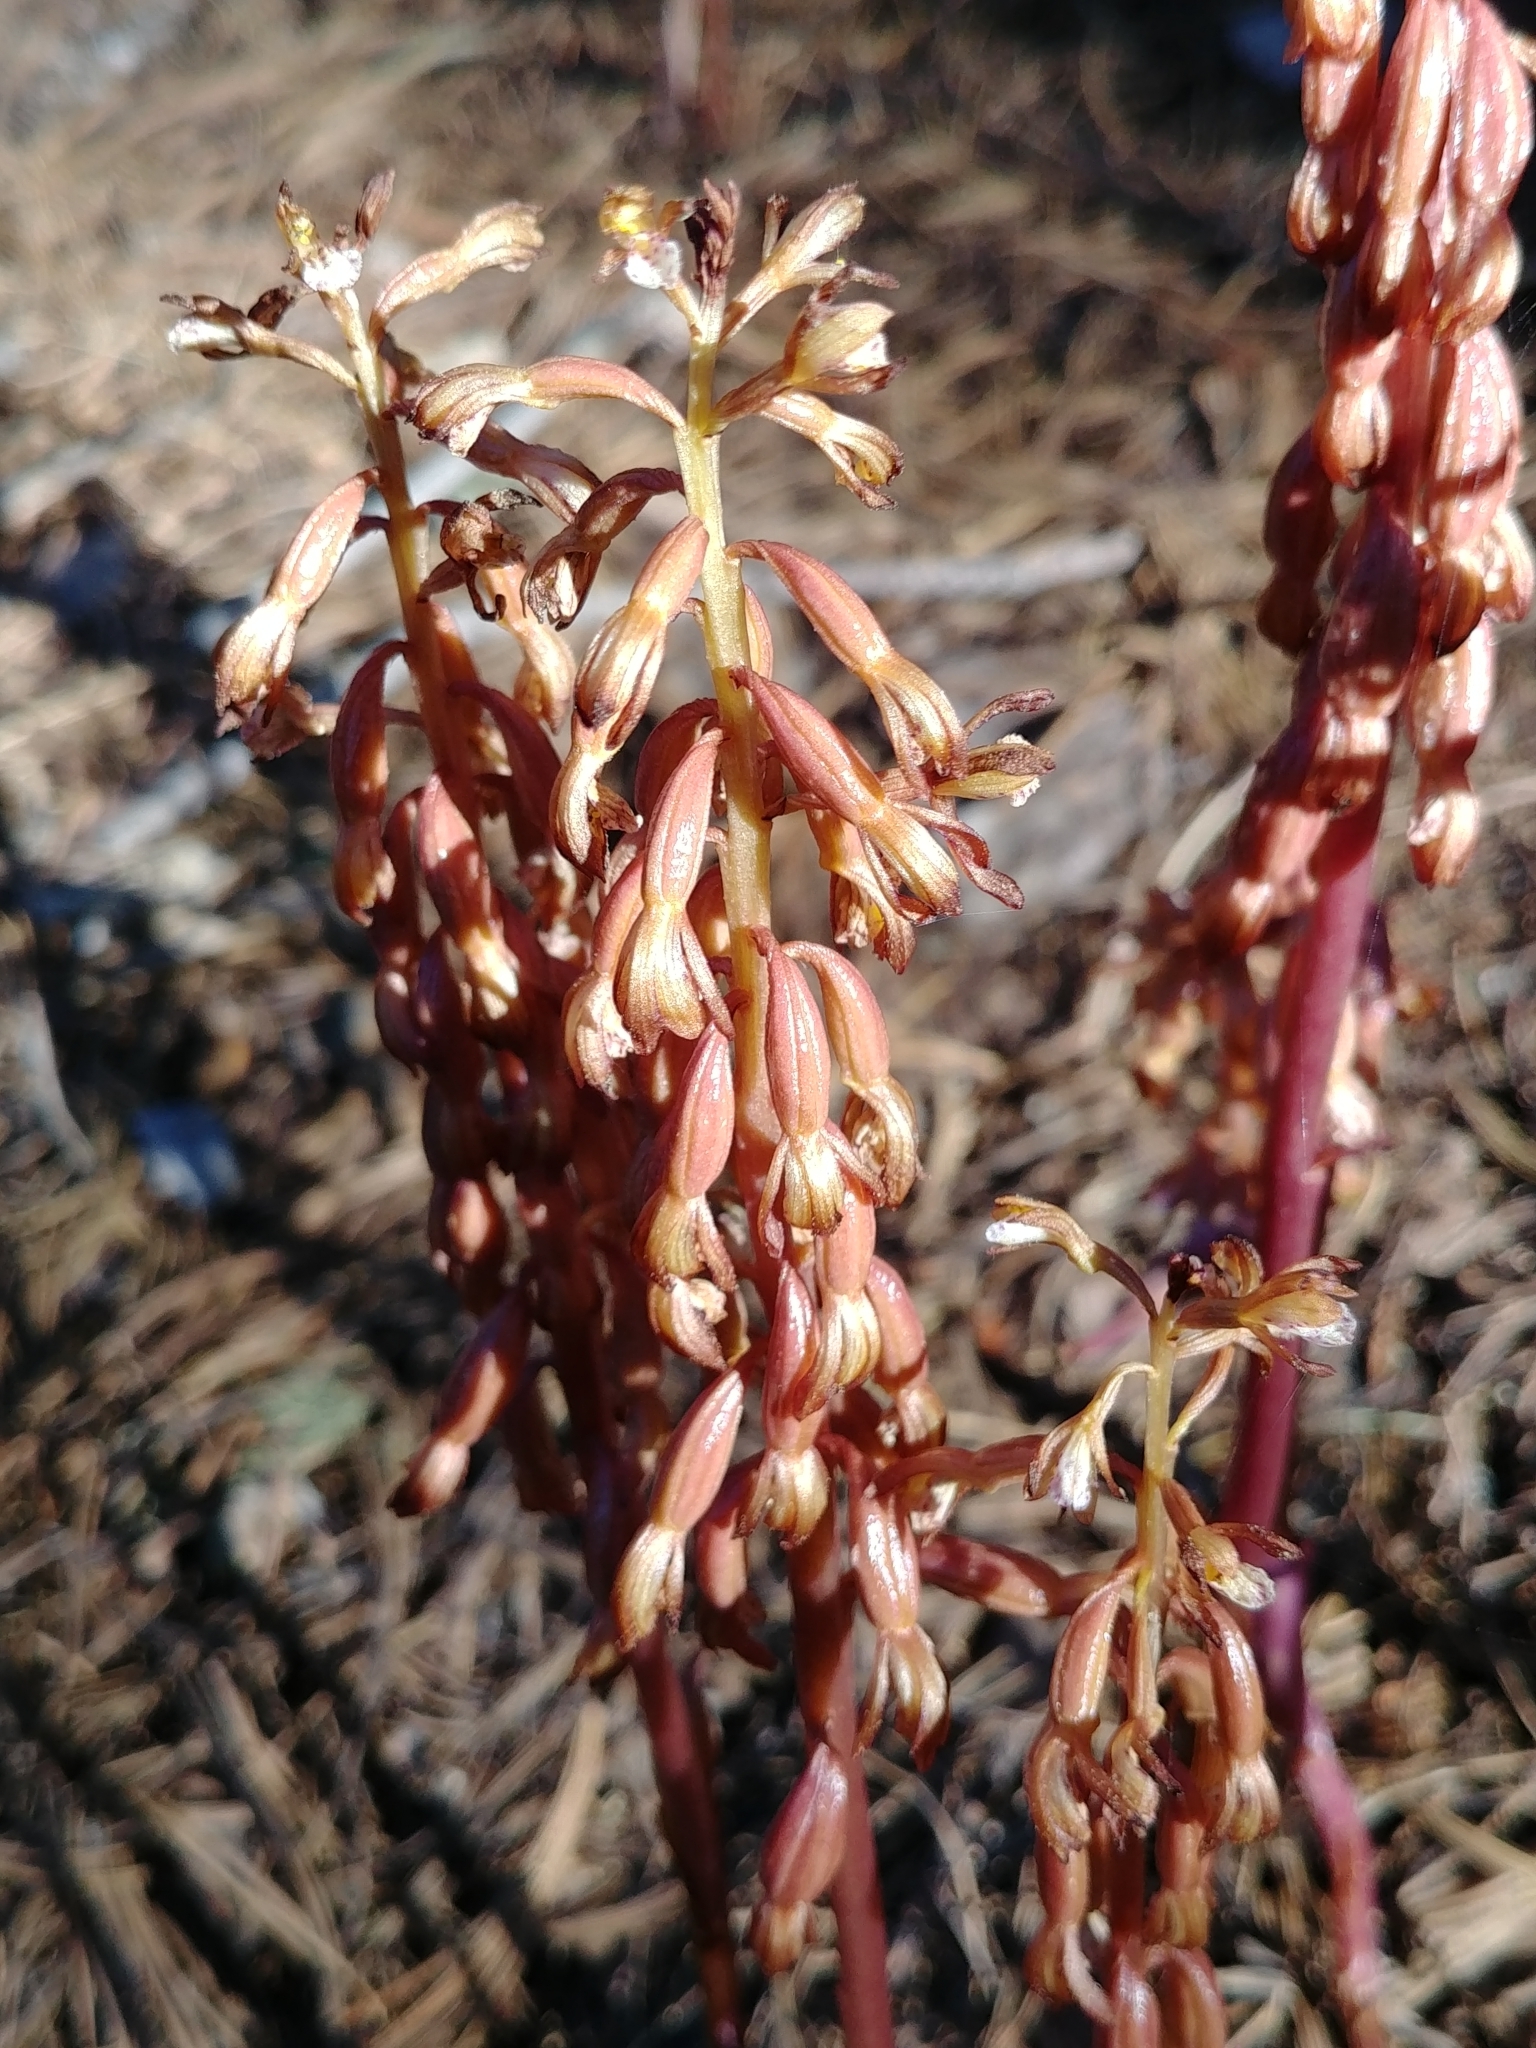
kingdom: Plantae
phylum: Tracheophyta
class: Liliopsida
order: Asparagales
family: Orchidaceae
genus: Corallorhiza
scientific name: Corallorhiza maculata
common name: Spotted coralroot
